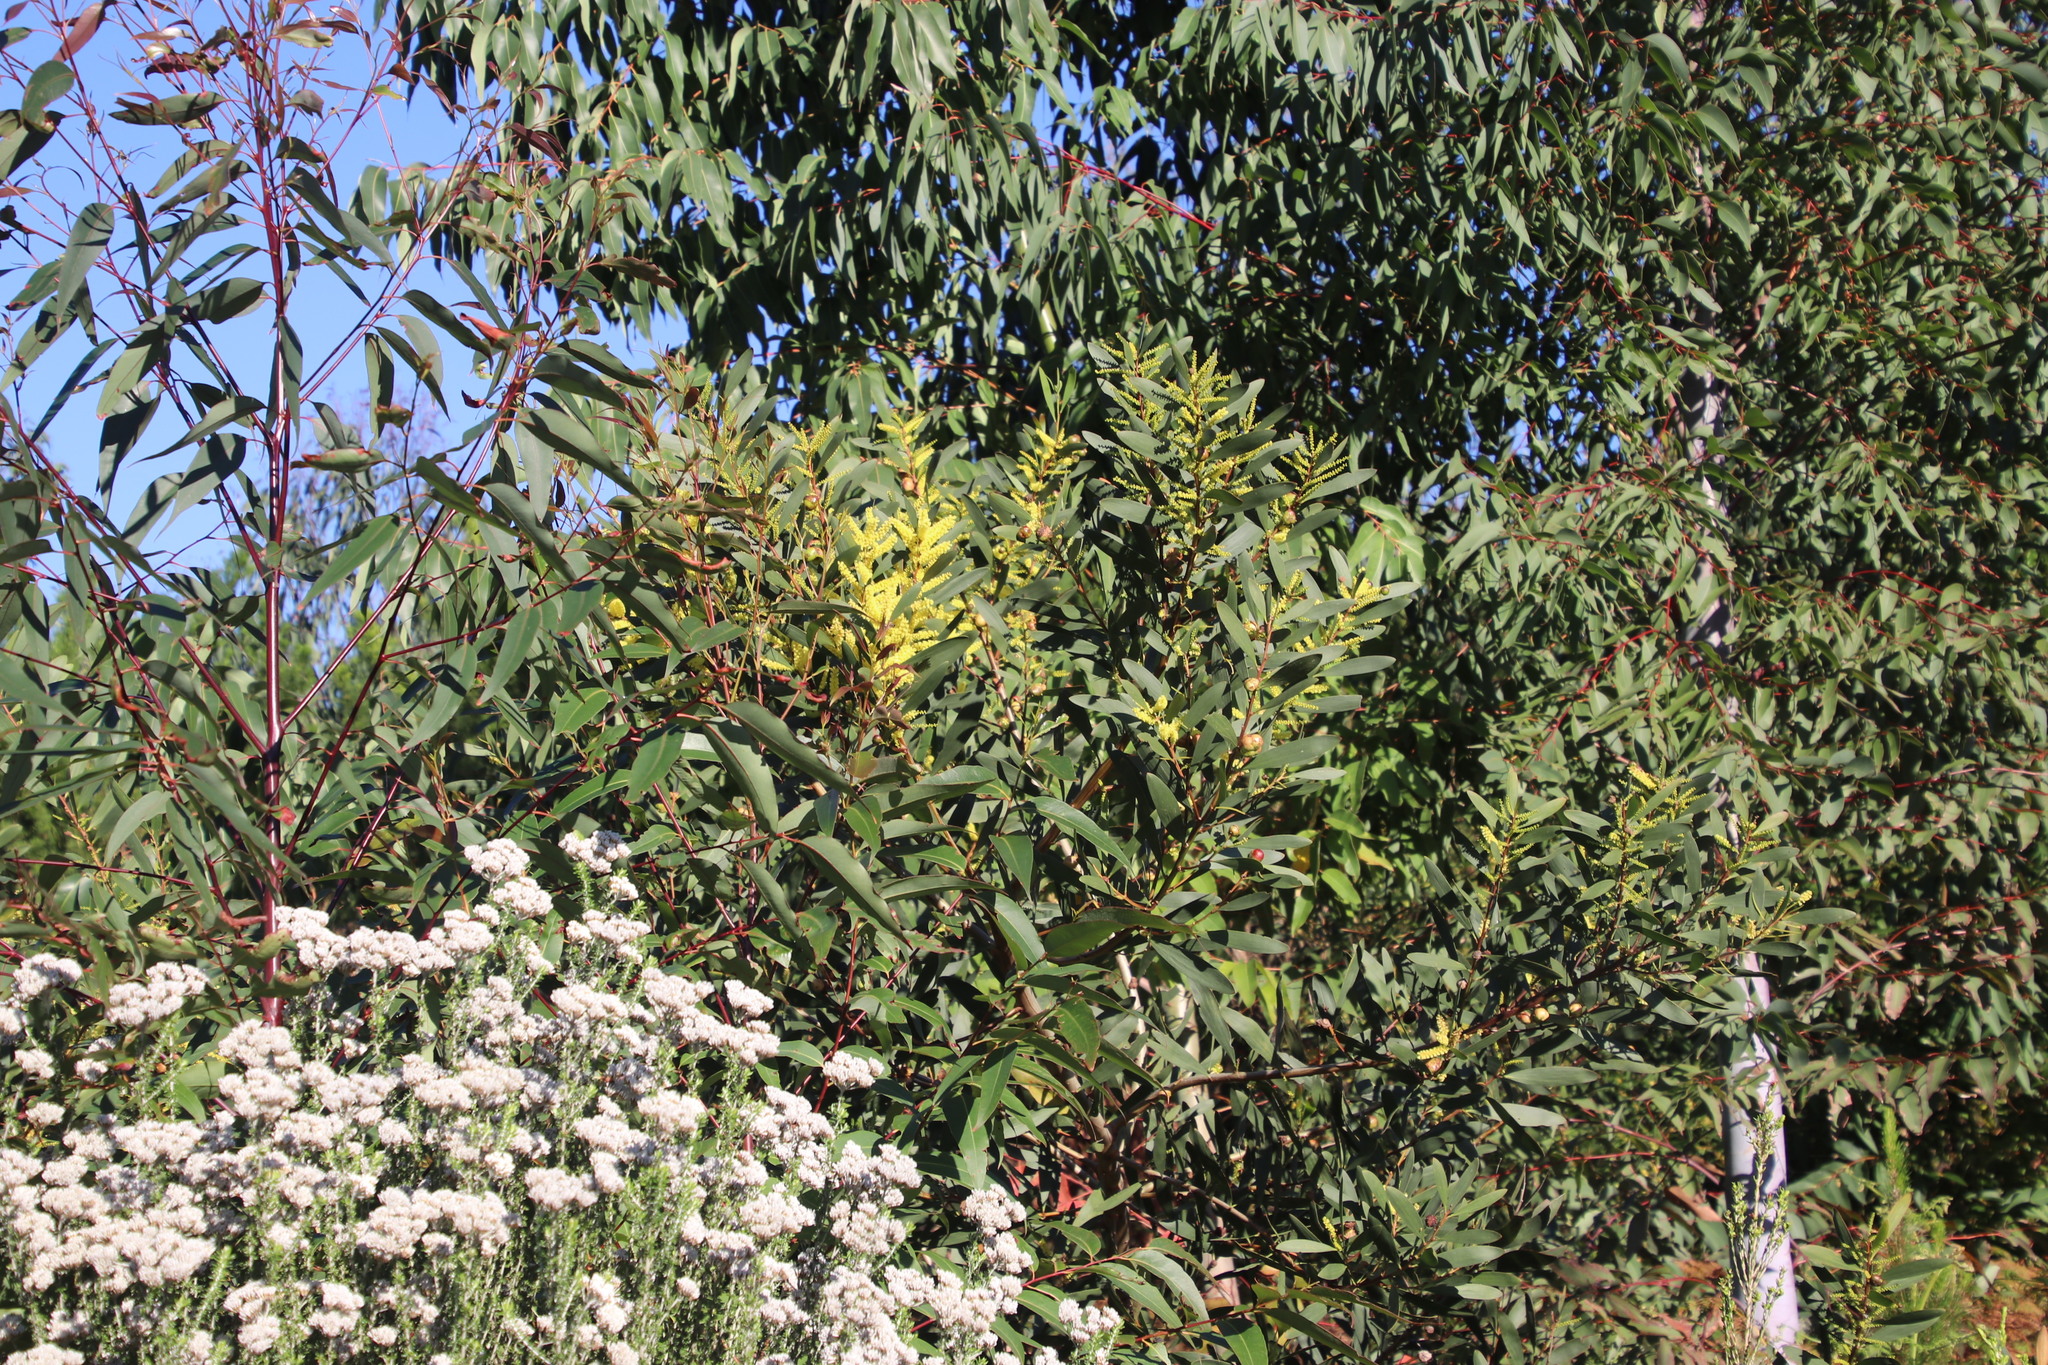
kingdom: Plantae
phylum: Tracheophyta
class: Magnoliopsida
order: Fabales
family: Fabaceae
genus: Acacia
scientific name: Acacia longifolia
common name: Sydney golden wattle
